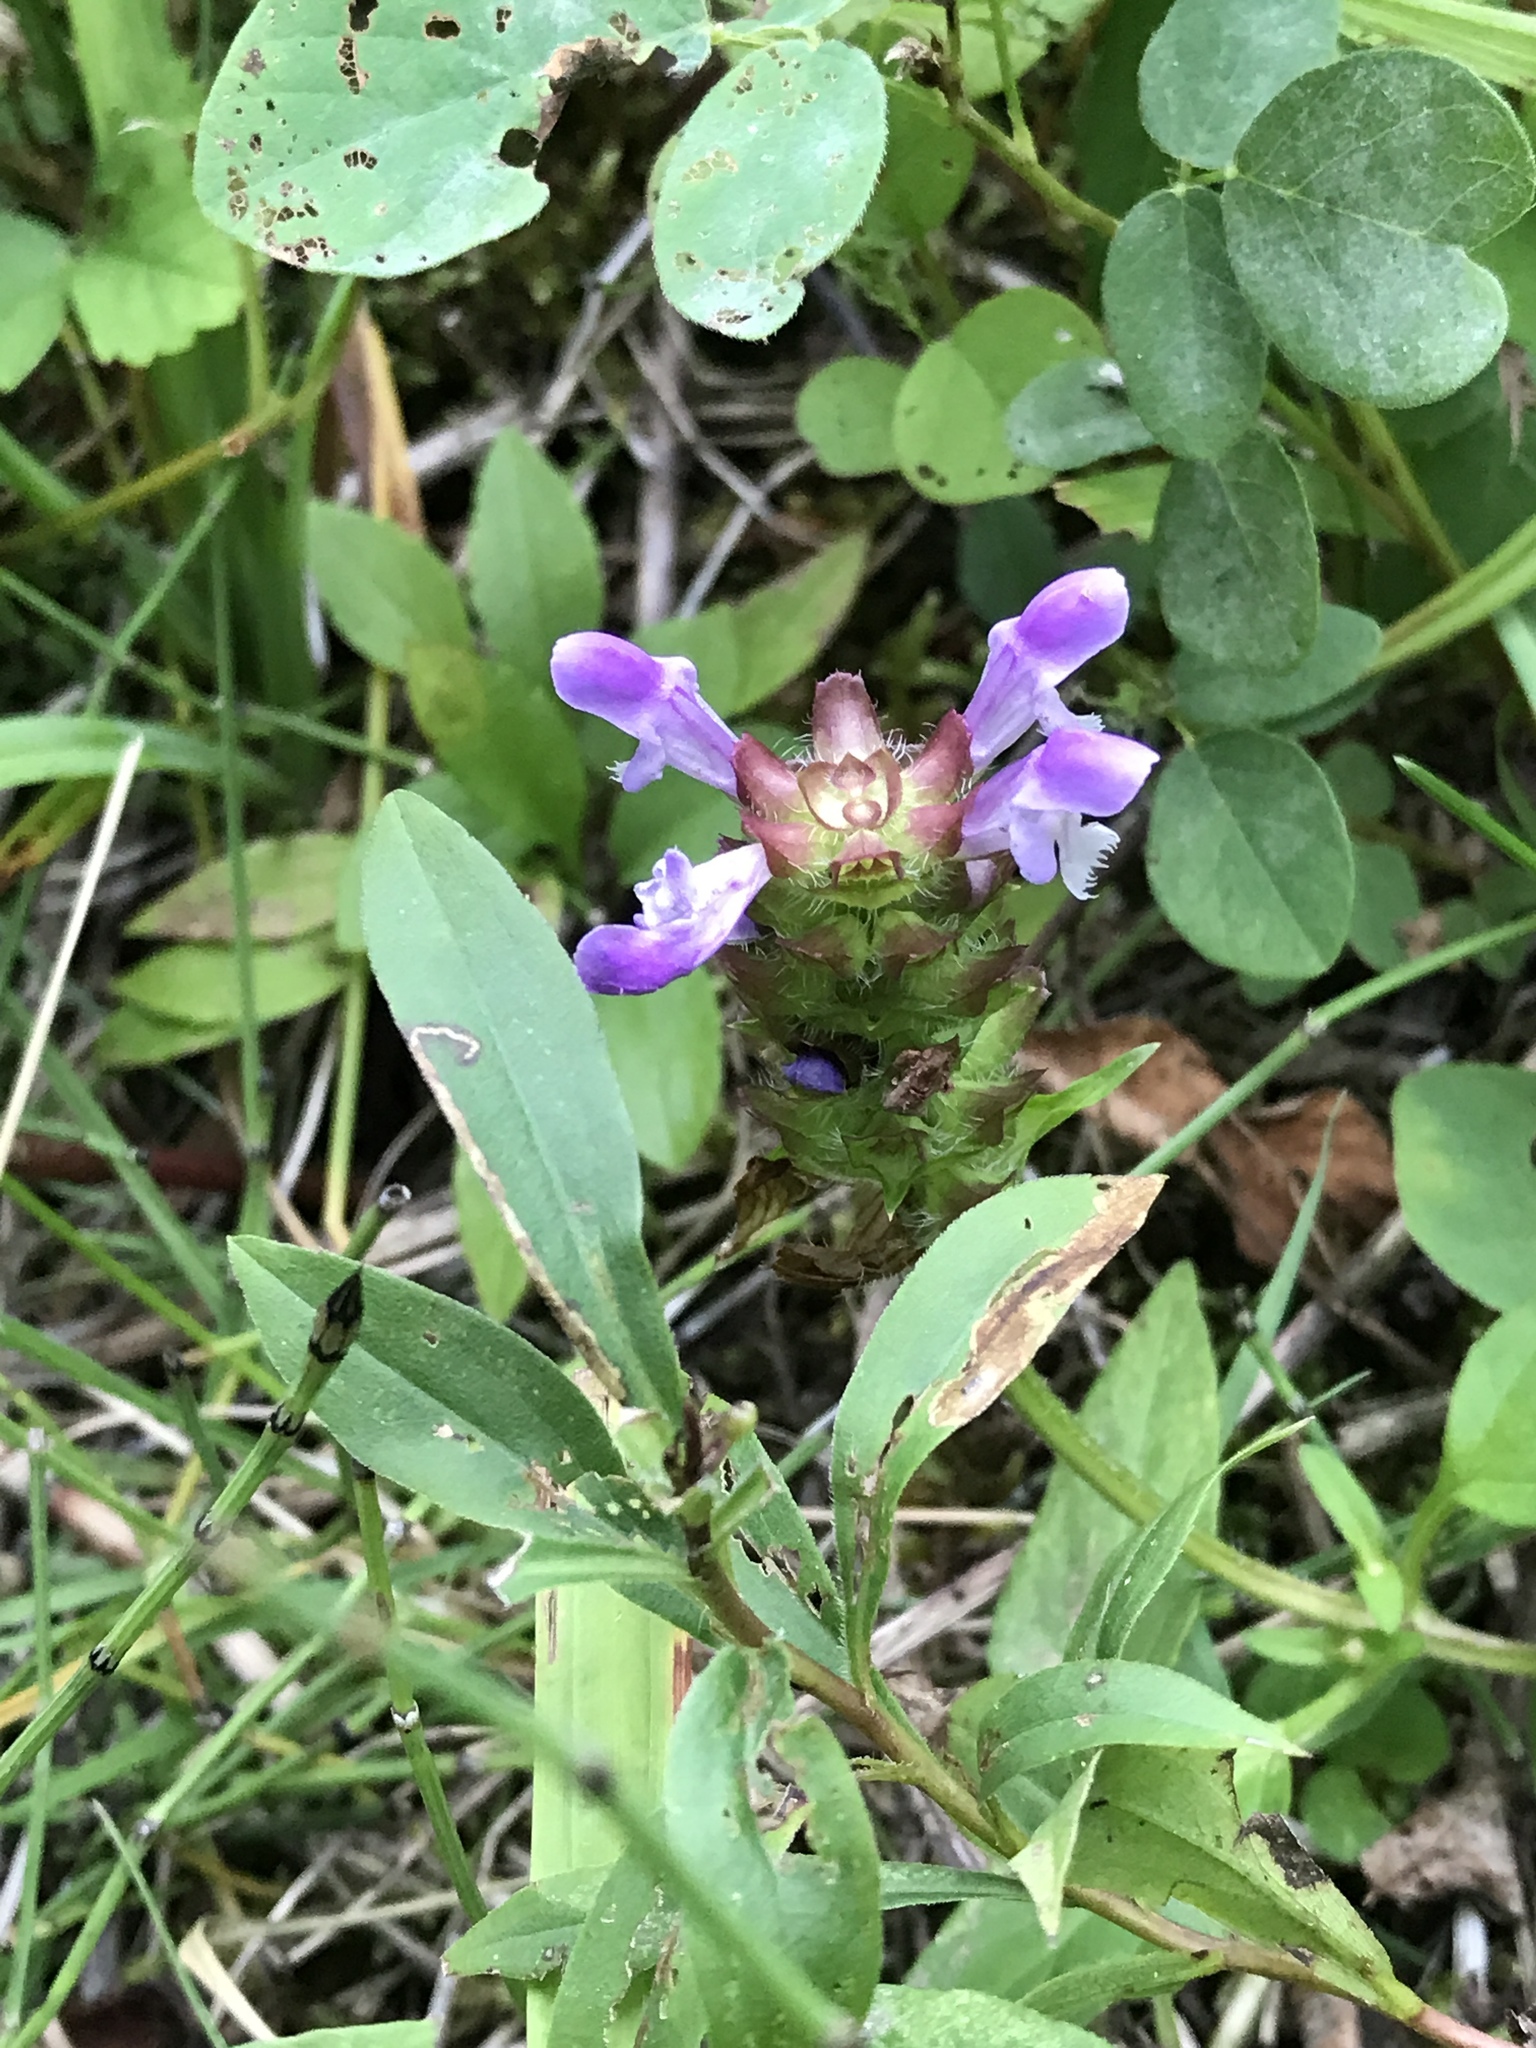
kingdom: Plantae
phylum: Tracheophyta
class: Magnoliopsida
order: Lamiales
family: Lamiaceae
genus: Prunella
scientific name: Prunella vulgaris
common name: Heal-all
